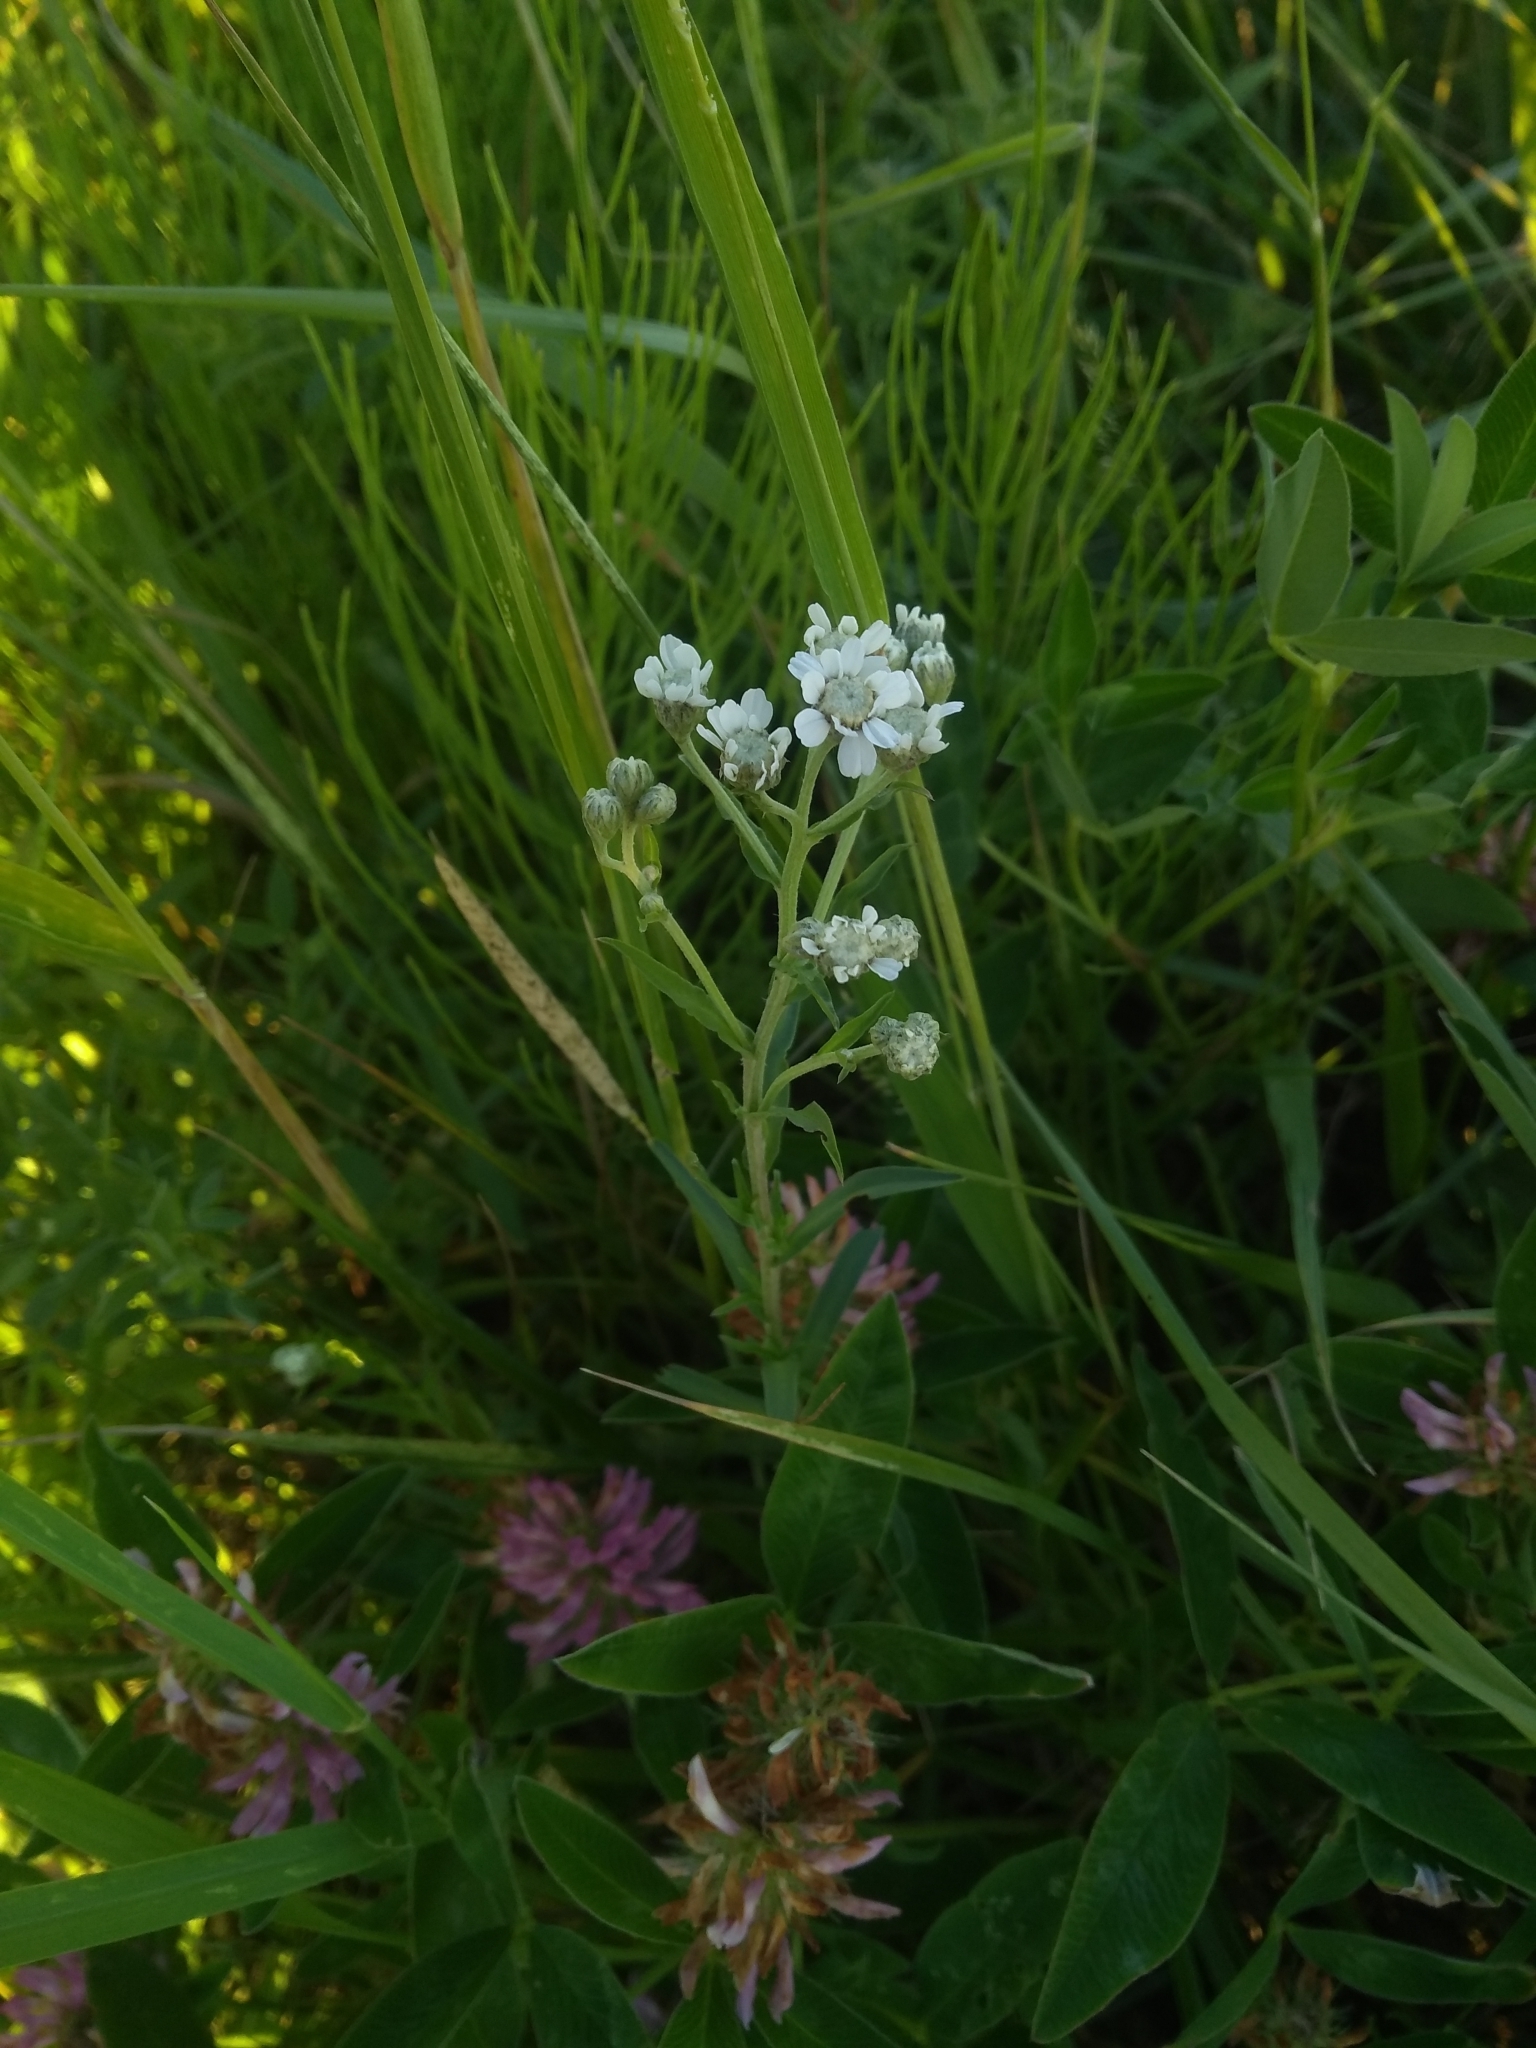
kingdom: Plantae
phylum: Tracheophyta
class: Magnoliopsida
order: Asterales
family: Asteraceae
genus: Achillea
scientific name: Achillea ptarmica
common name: Sneezeweed
